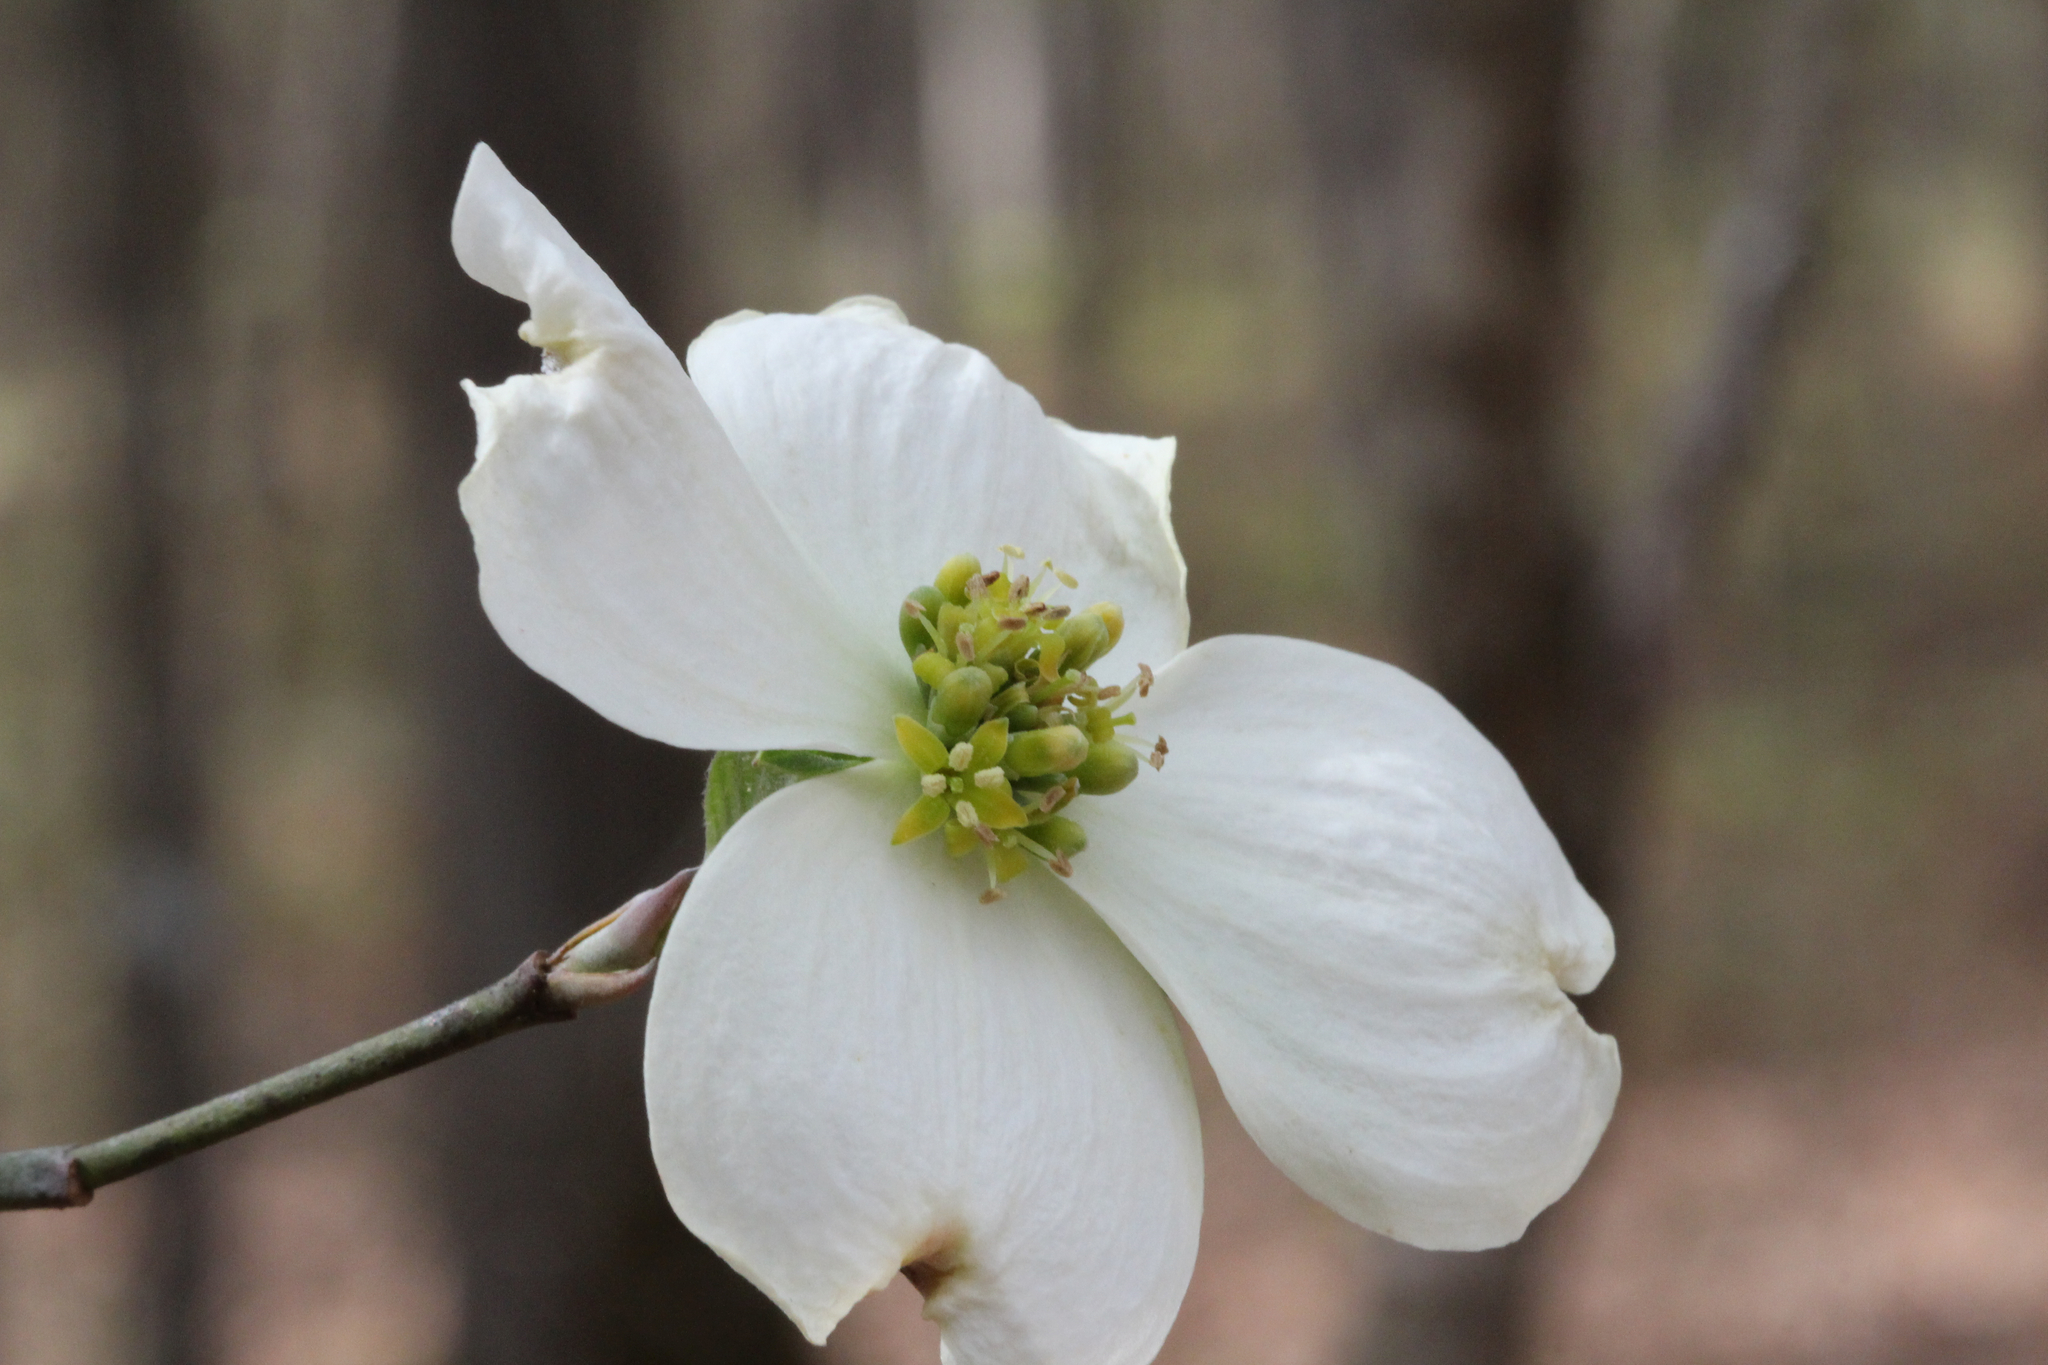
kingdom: Plantae
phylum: Tracheophyta
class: Magnoliopsida
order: Cornales
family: Cornaceae
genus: Cornus
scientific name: Cornus florida
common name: Flowering dogwood
